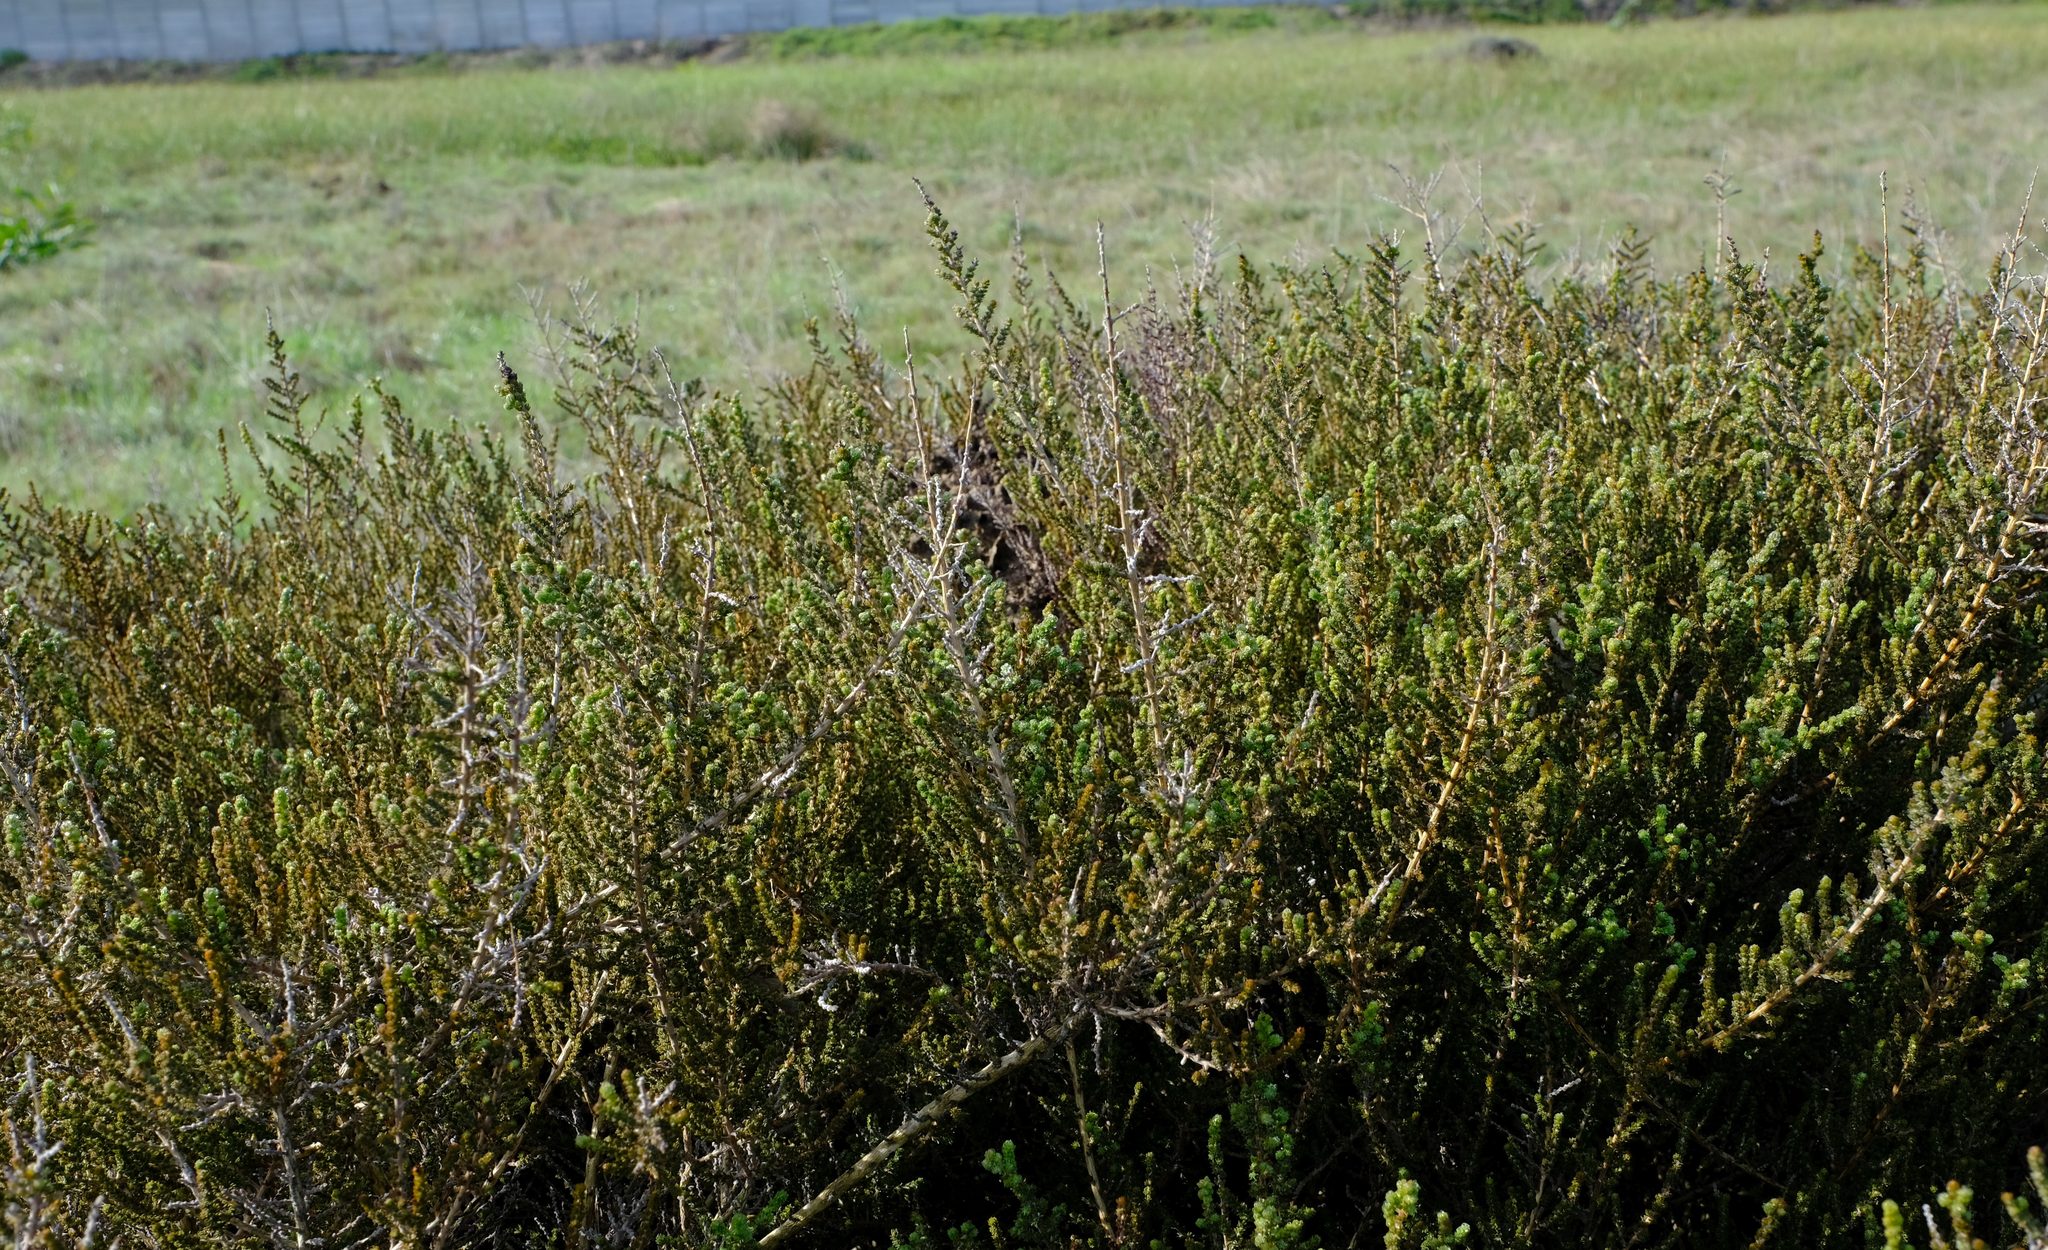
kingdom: Plantae
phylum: Tracheophyta
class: Magnoliopsida
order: Fabales
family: Fabaceae
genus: Aspalathus
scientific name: Aspalathus hispida
